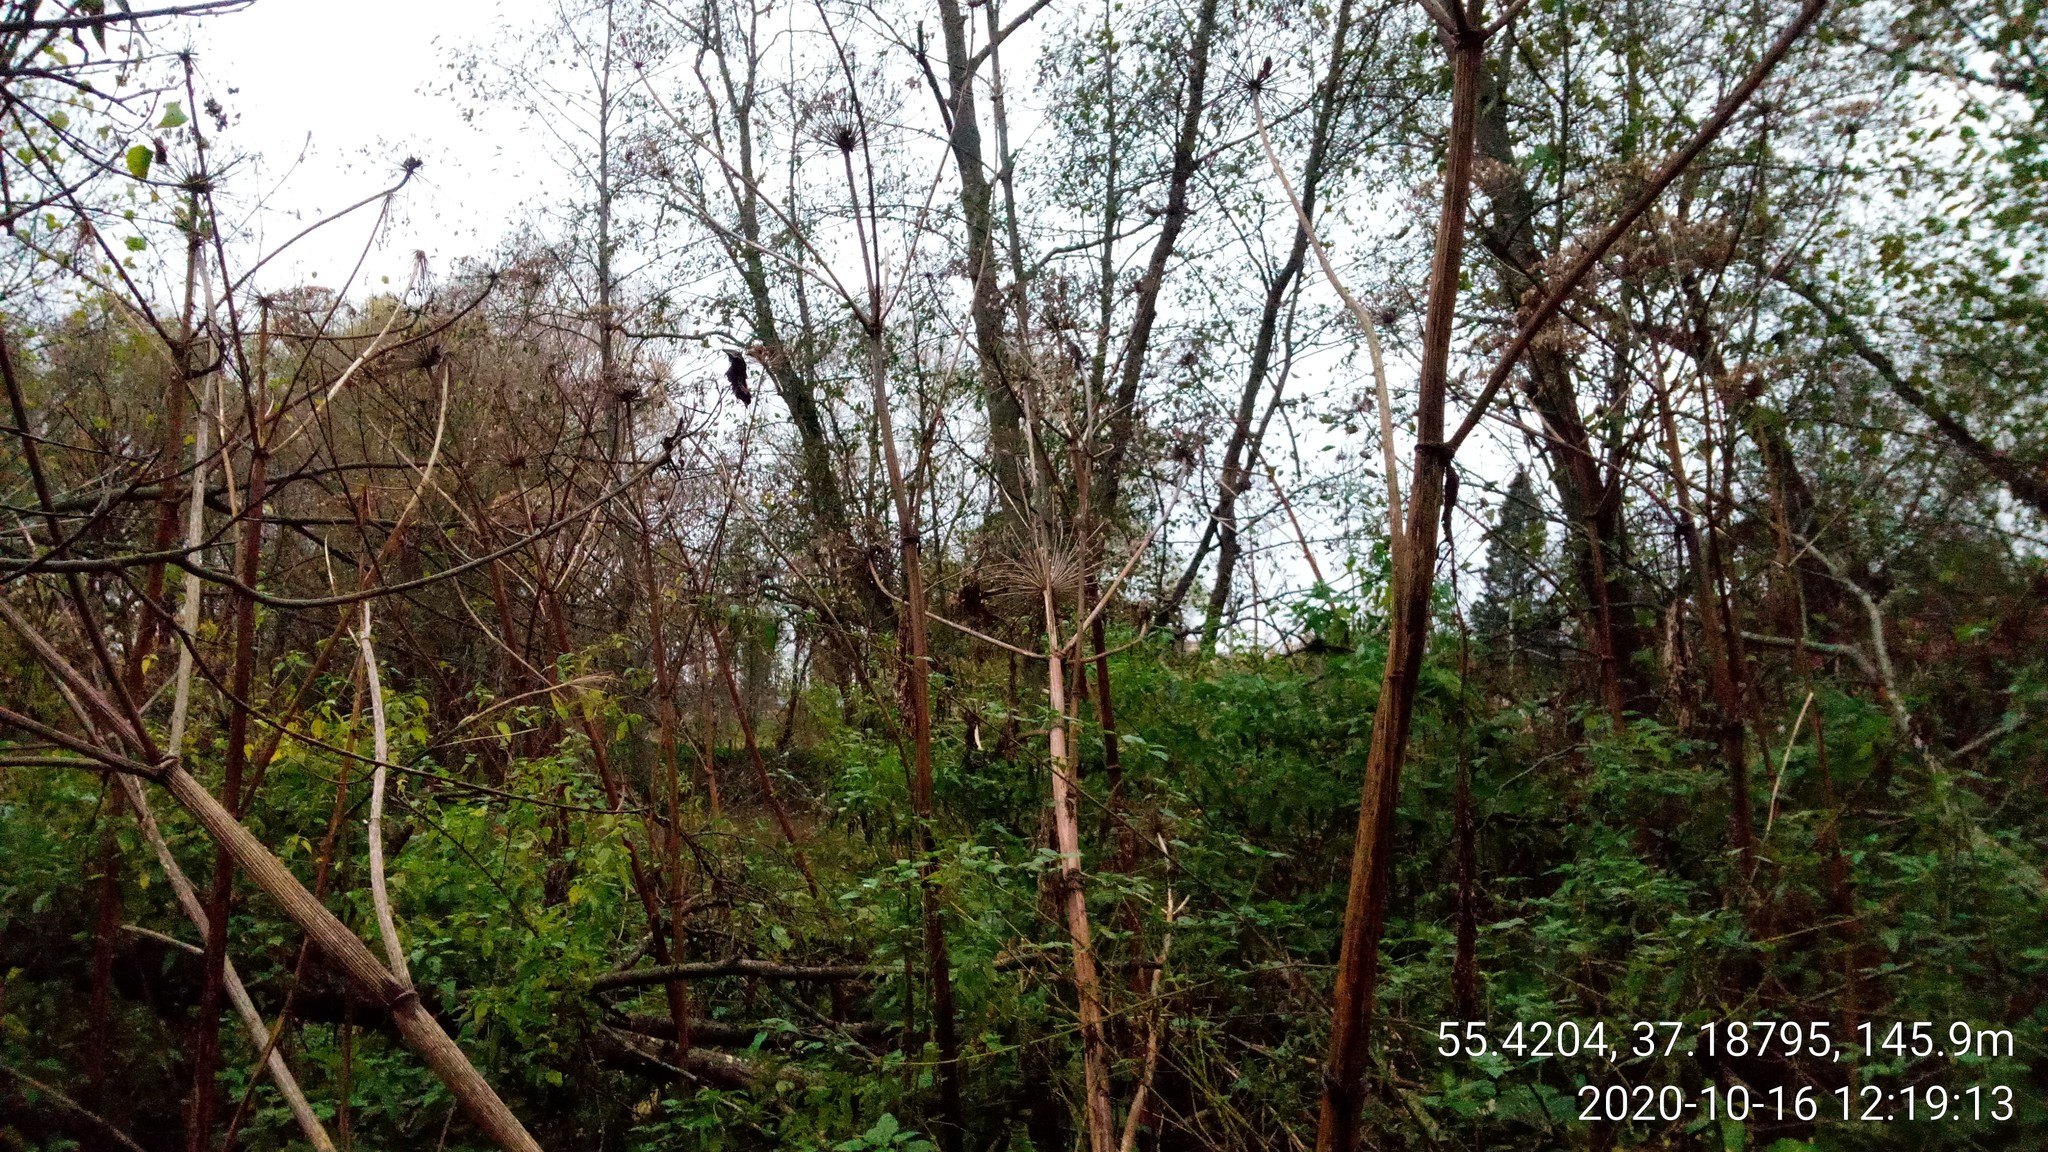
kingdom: Plantae
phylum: Tracheophyta
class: Magnoliopsida
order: Apiales
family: Apiaceae
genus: Heracleum
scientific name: Heracleum sosnowskyi
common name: Sosnowsky's hogweed
